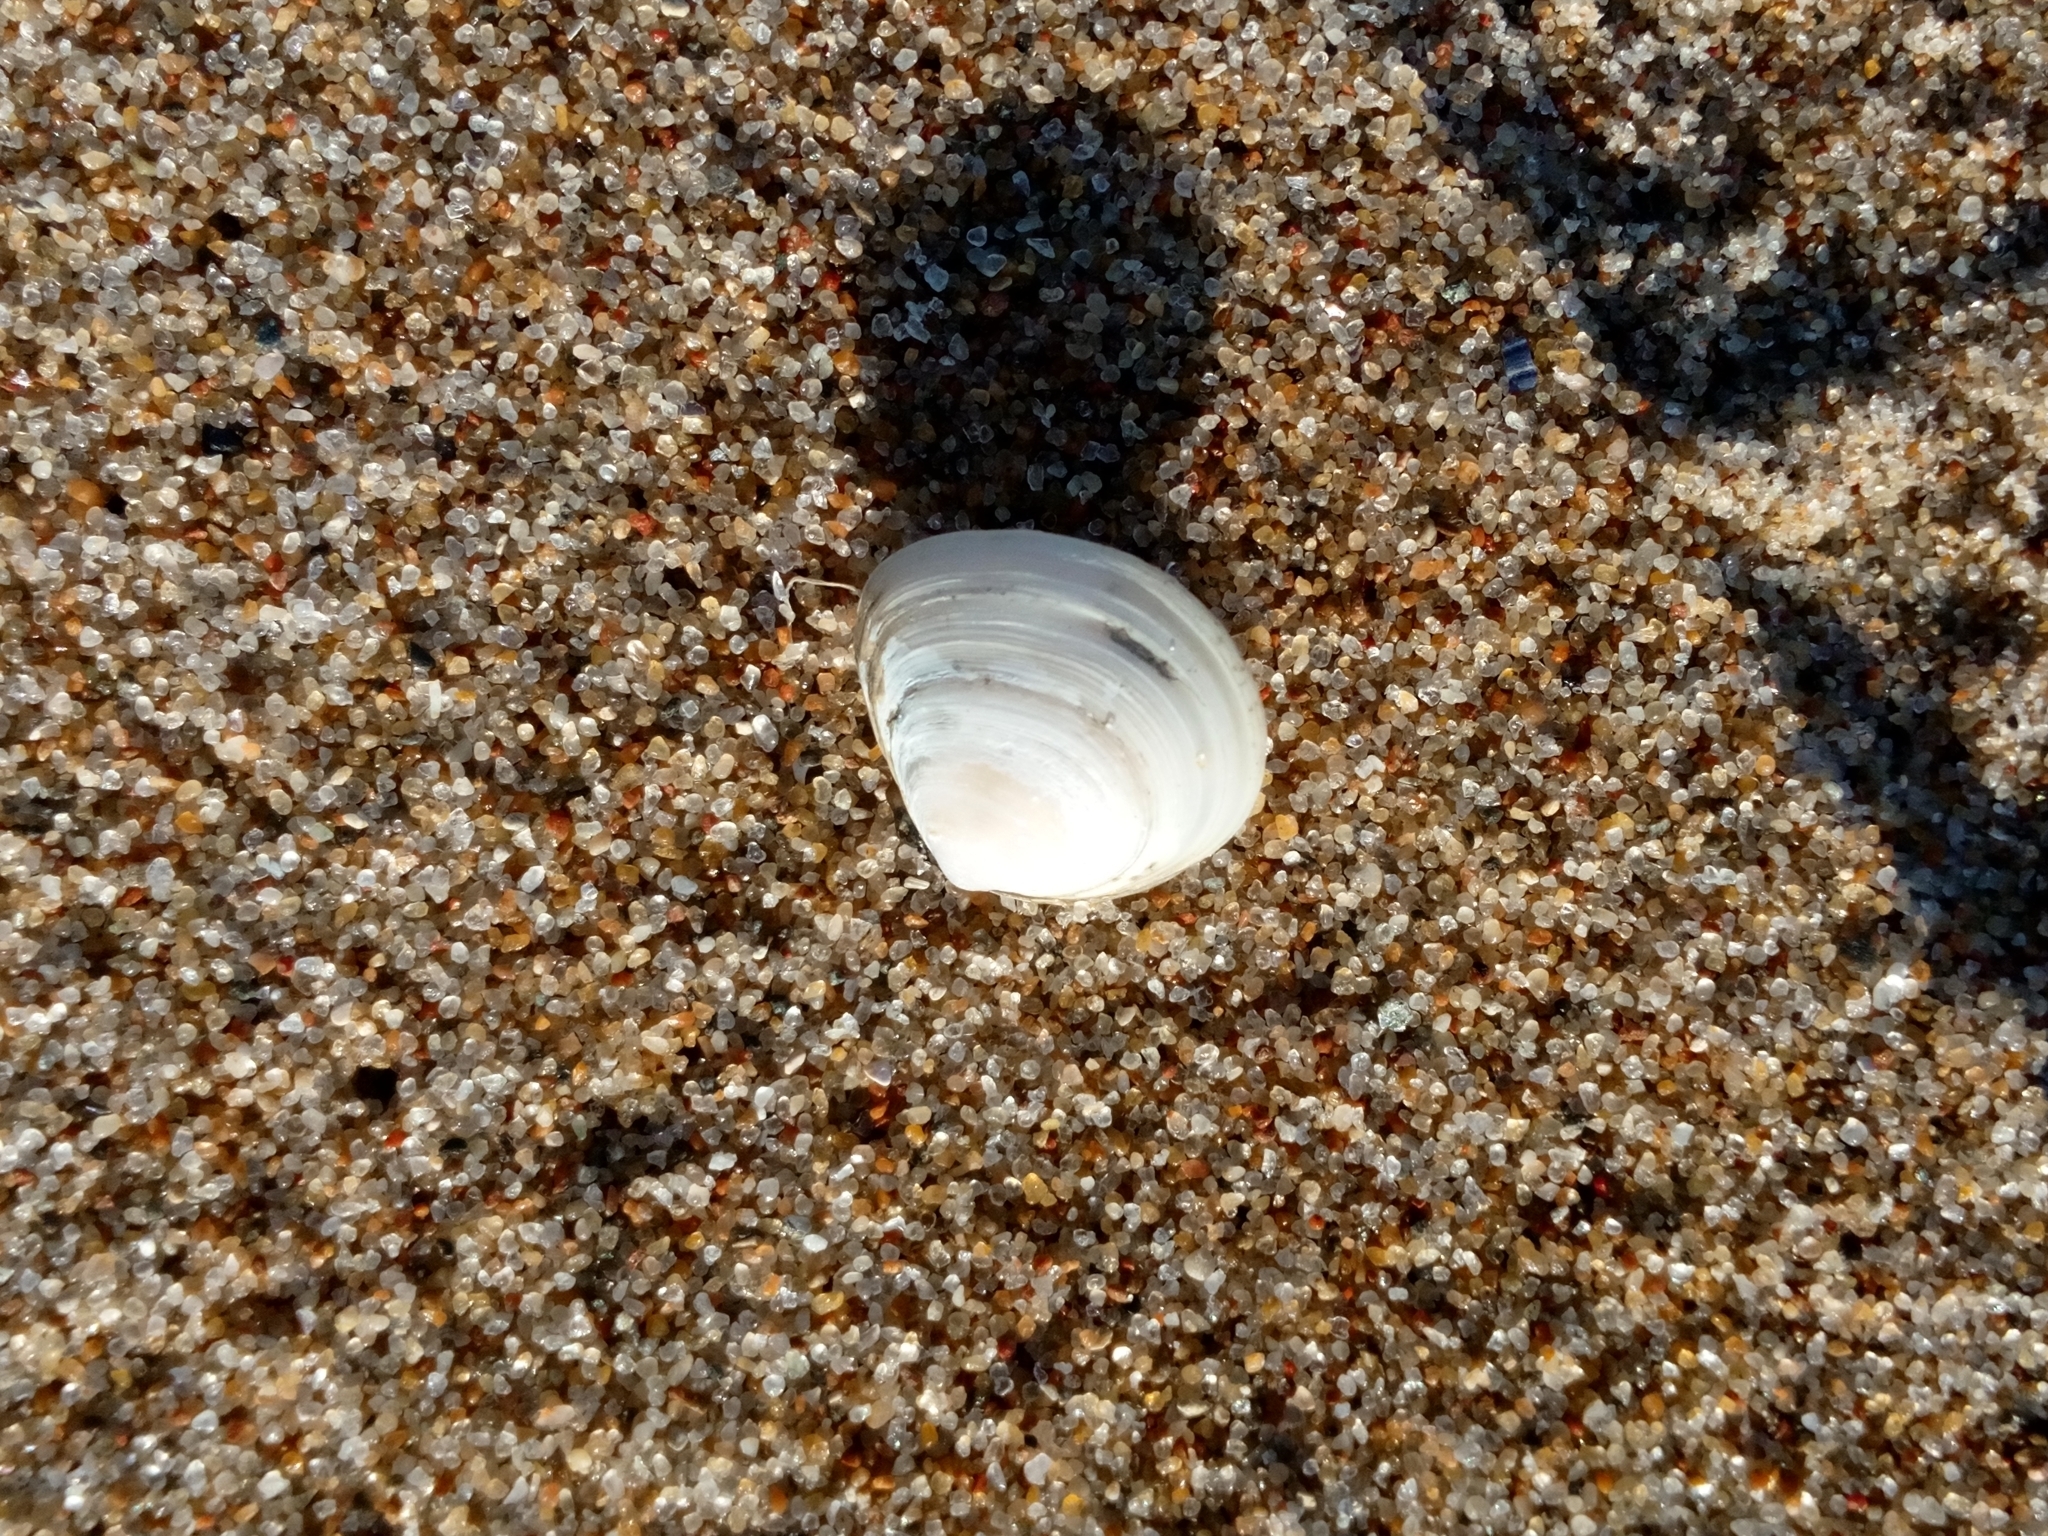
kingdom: Animalia
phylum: Mollusca
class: Bivalvia
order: Cardiida
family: Tellinidae
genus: Macoma
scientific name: Macoma balthica
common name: Baltic tellin
